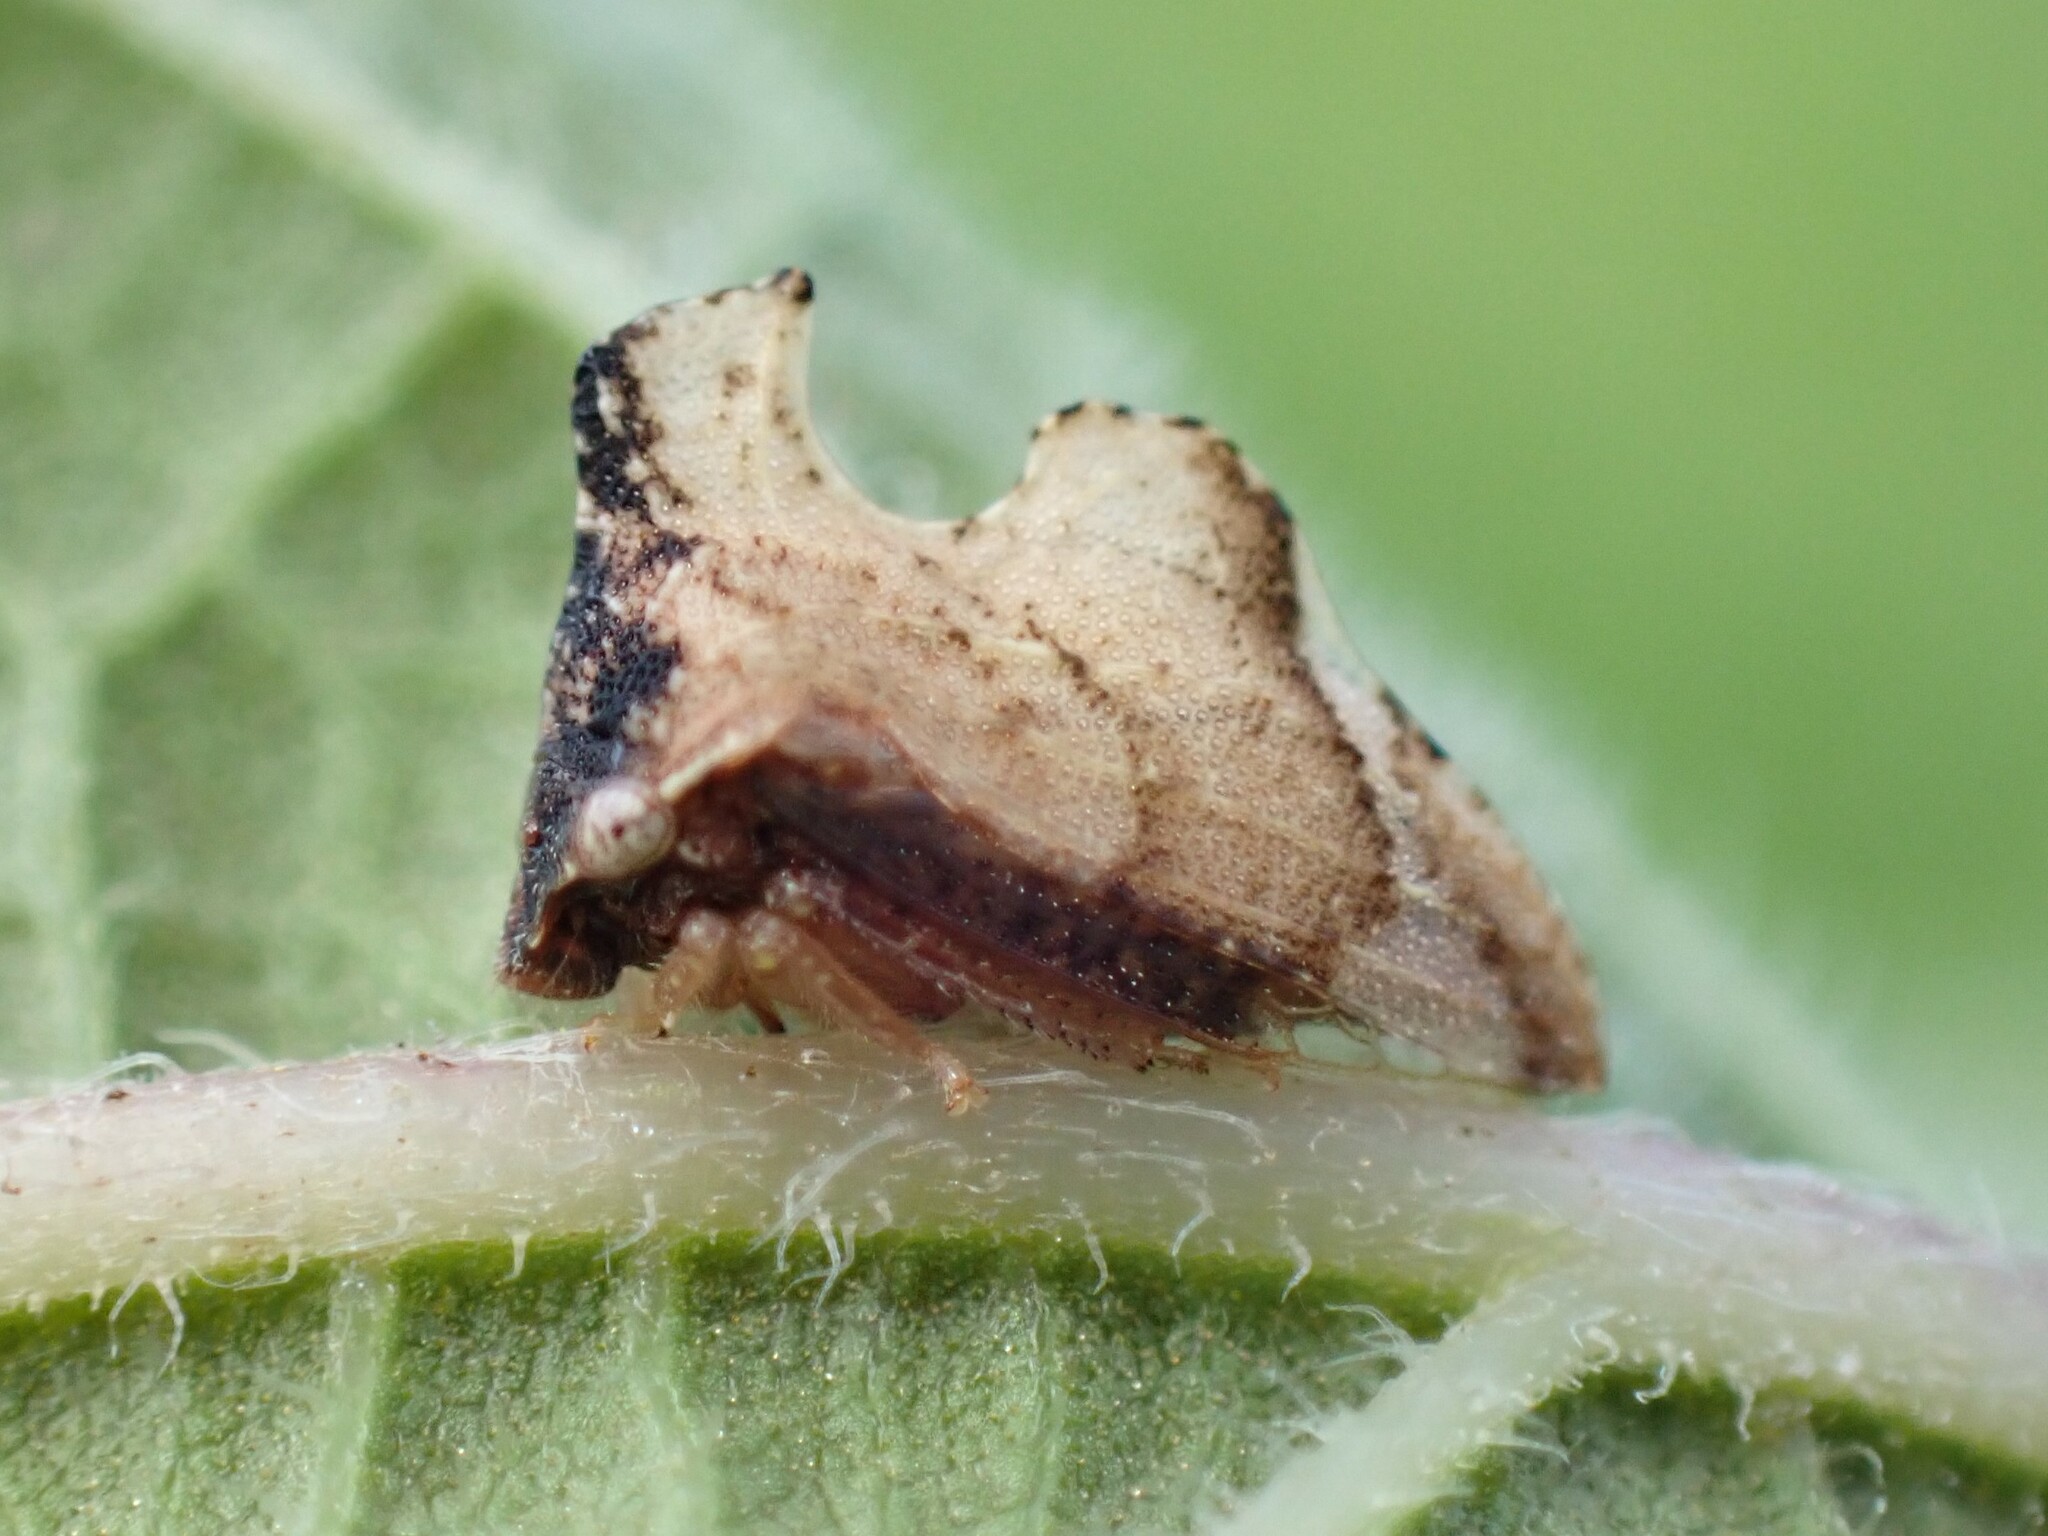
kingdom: Animalia
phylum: Arthropoda
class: Insecta
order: Hemiptera
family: Membracidae
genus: Entylia
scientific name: Entylia carinata
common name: Keeled treehopper
